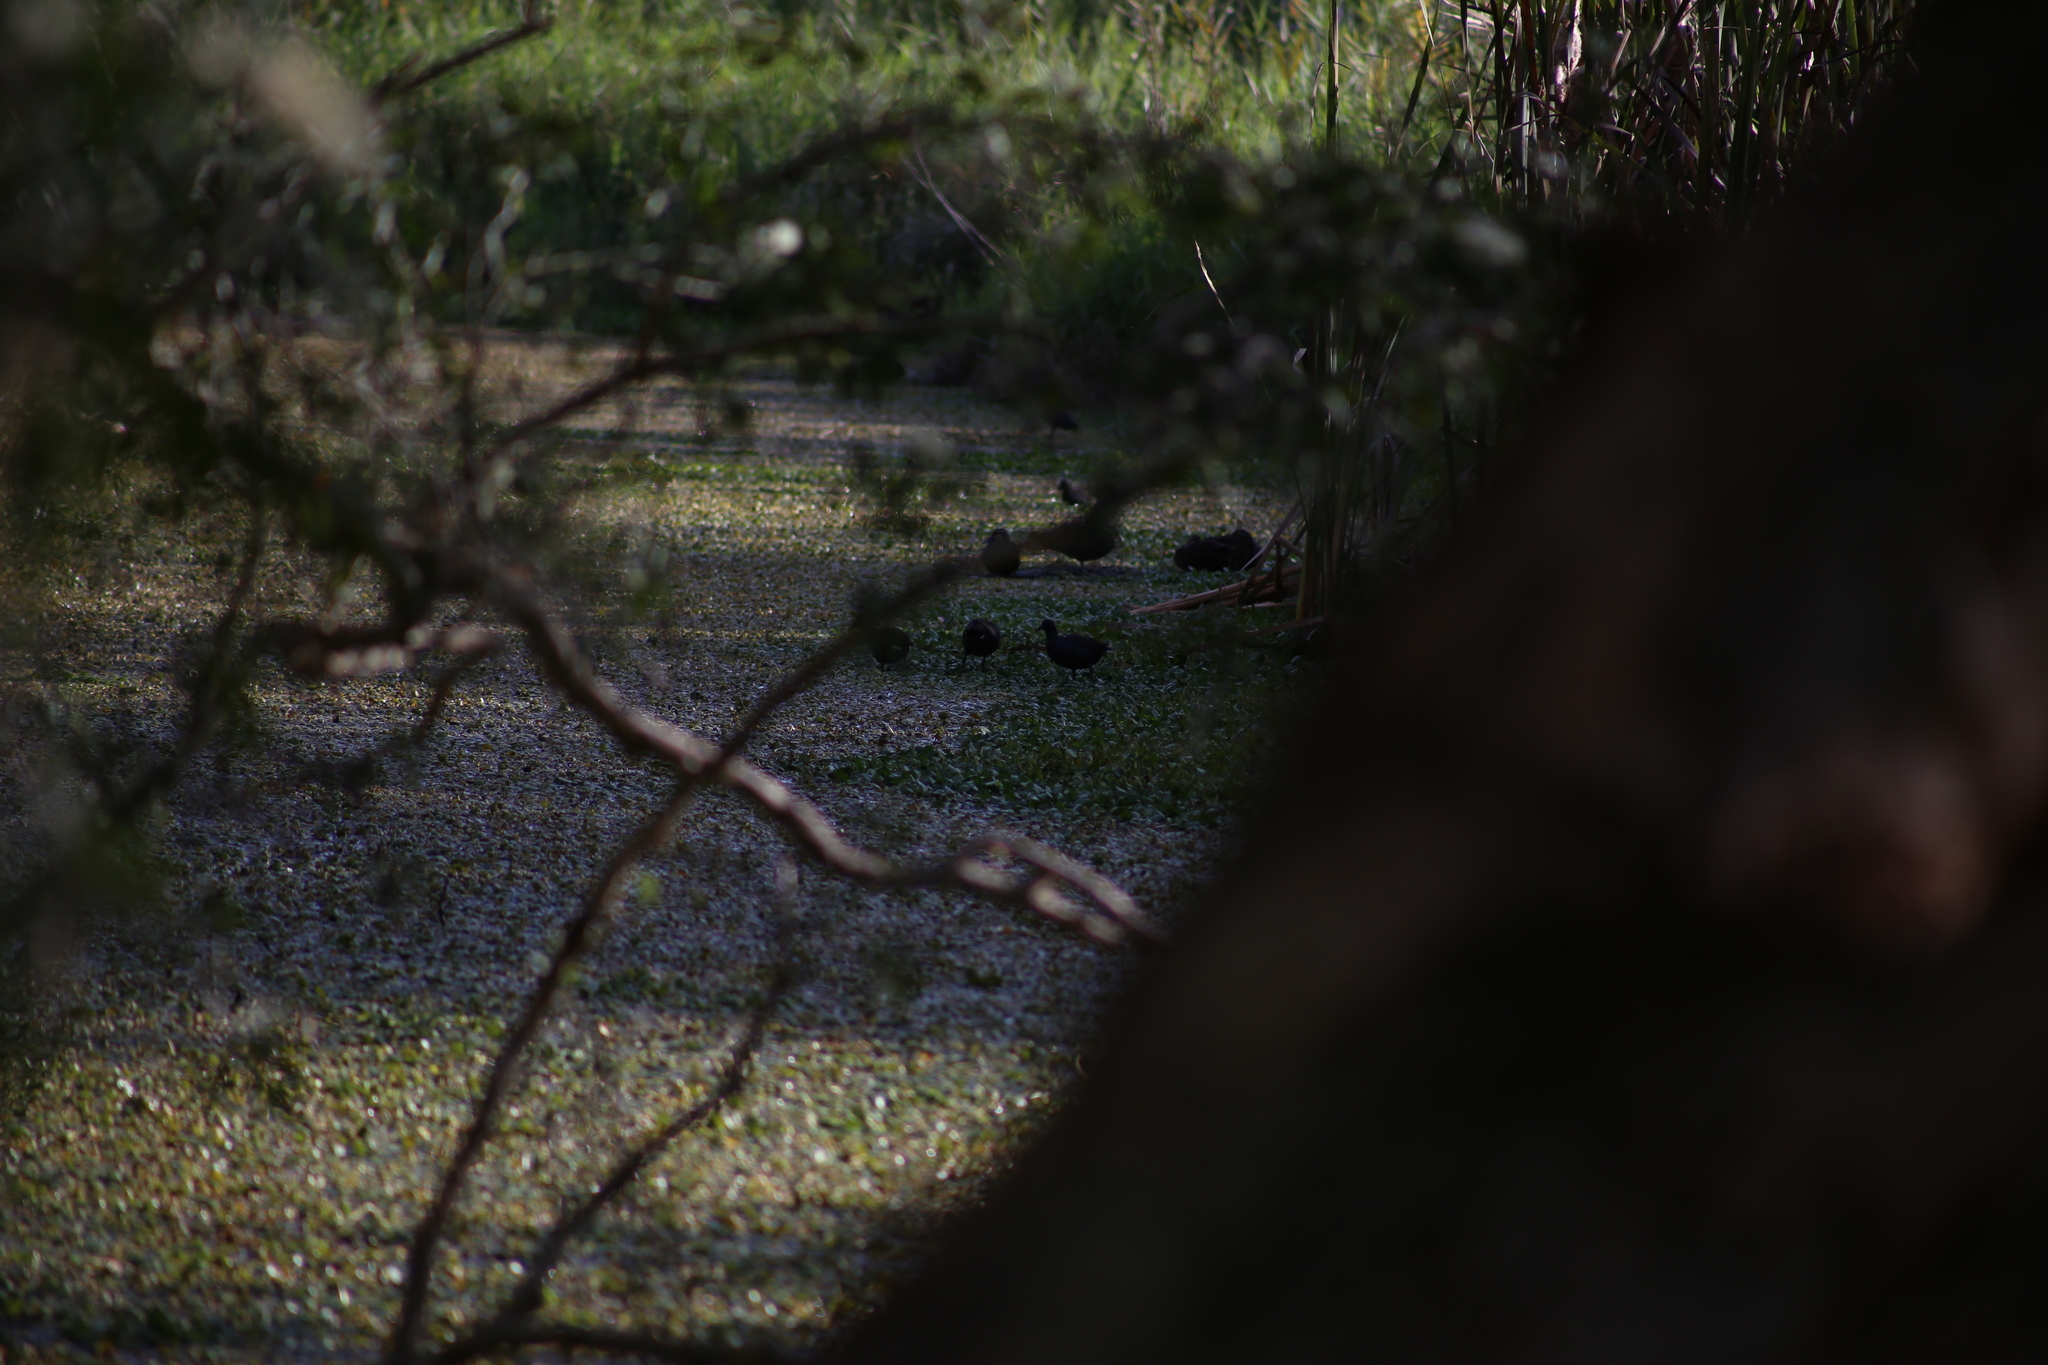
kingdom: Animalia
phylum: Chordata
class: Aves
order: Gruiformes
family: Rallidae
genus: Gallinula
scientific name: Gallinula tenebrosa
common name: Dusky moorhen
